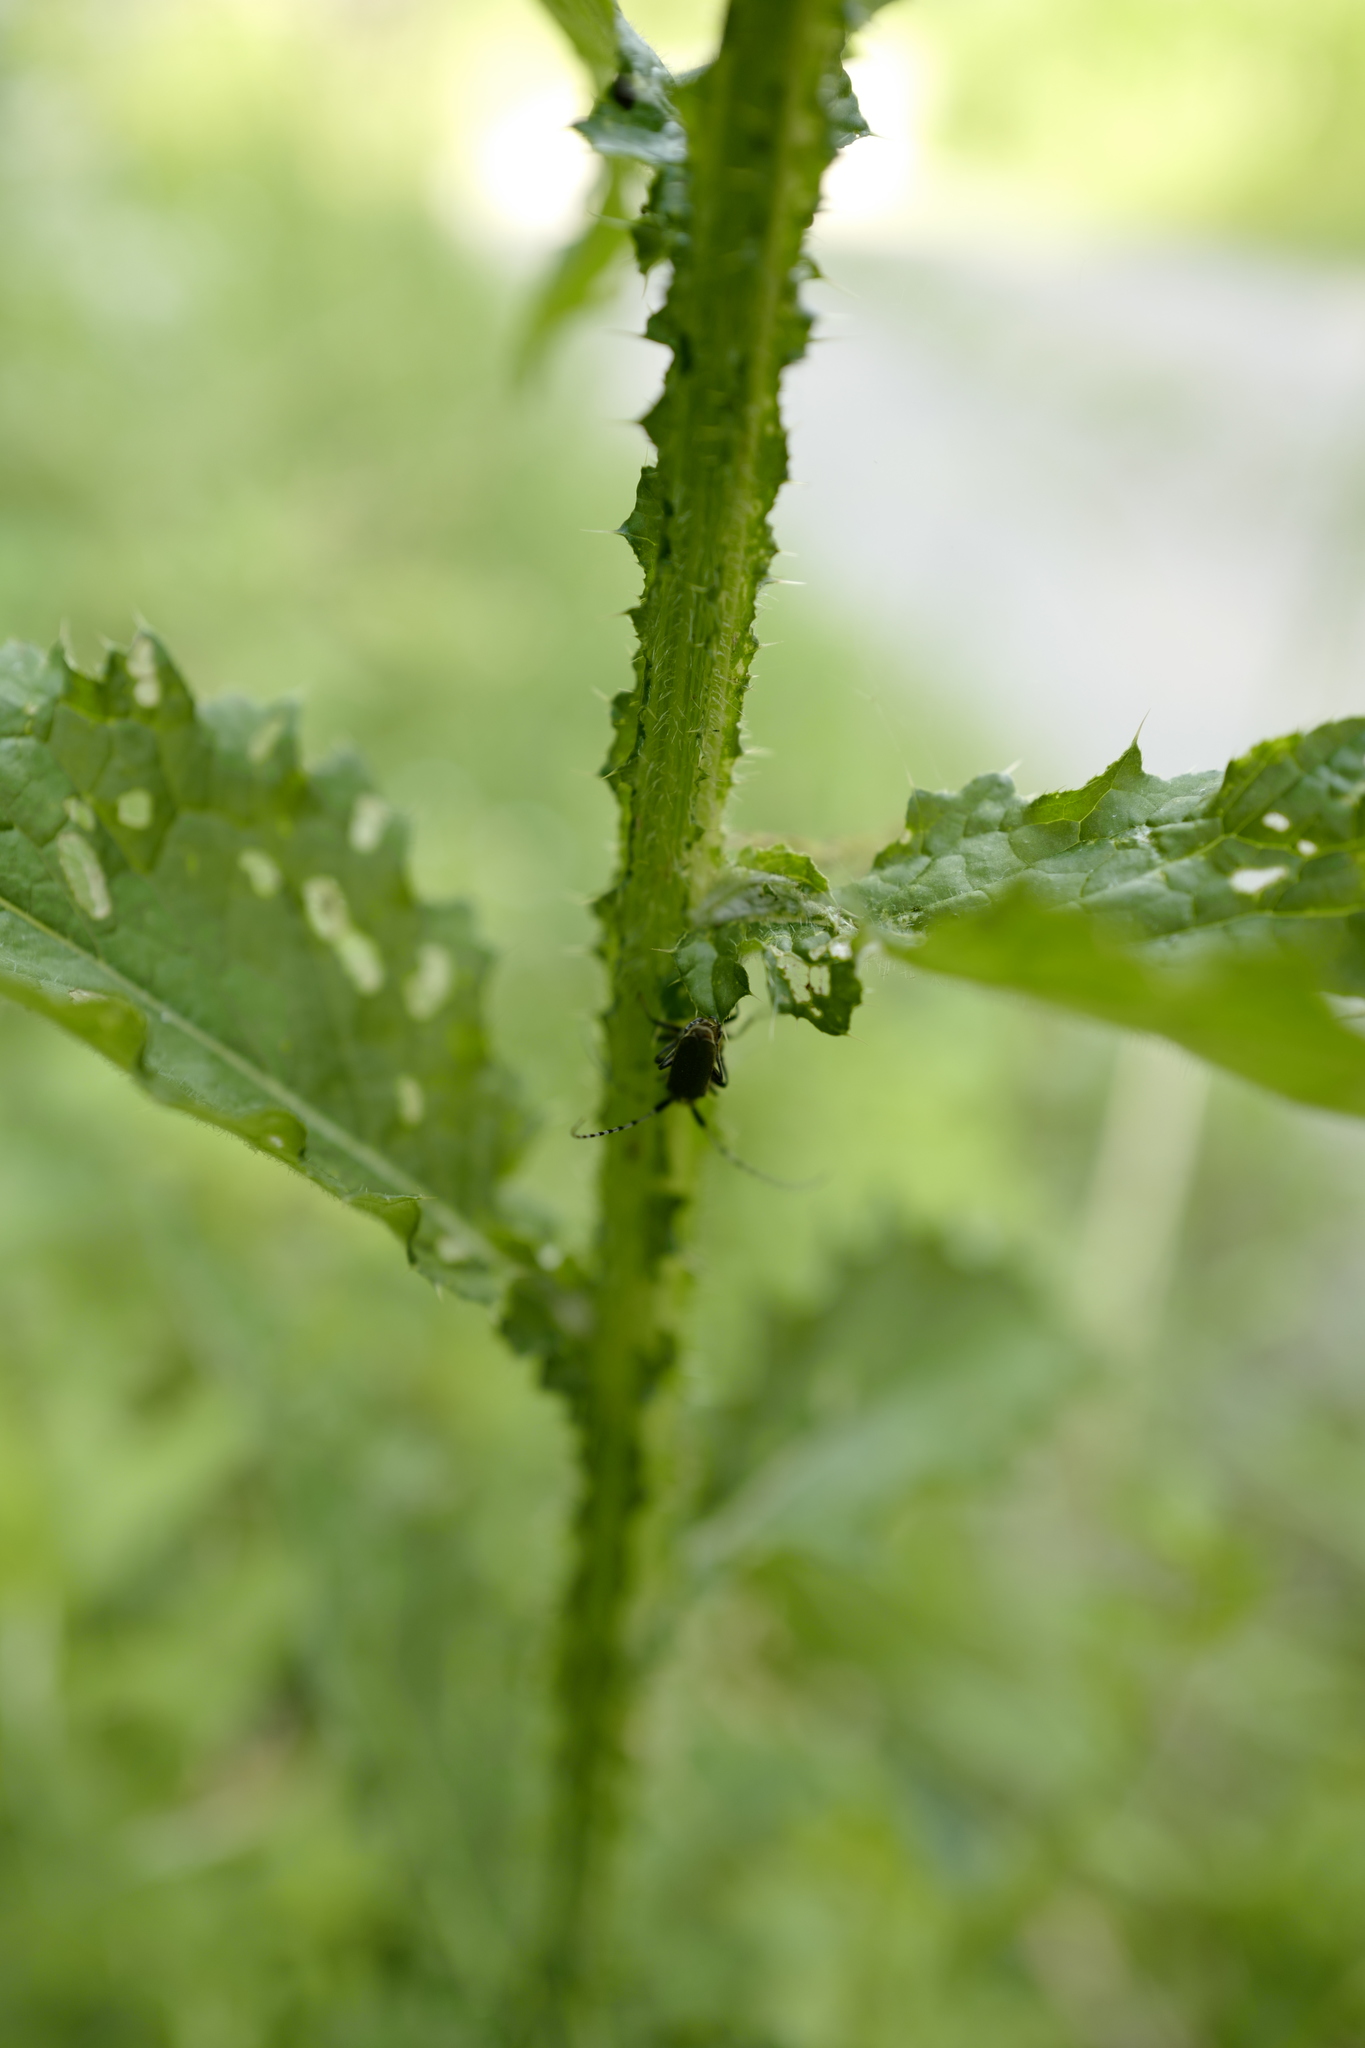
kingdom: Animalia
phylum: Arthropoda
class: Insecta
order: Coleoptera
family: Cerambycidae
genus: Agapanthia
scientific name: Agapanthia villosoviridescens
